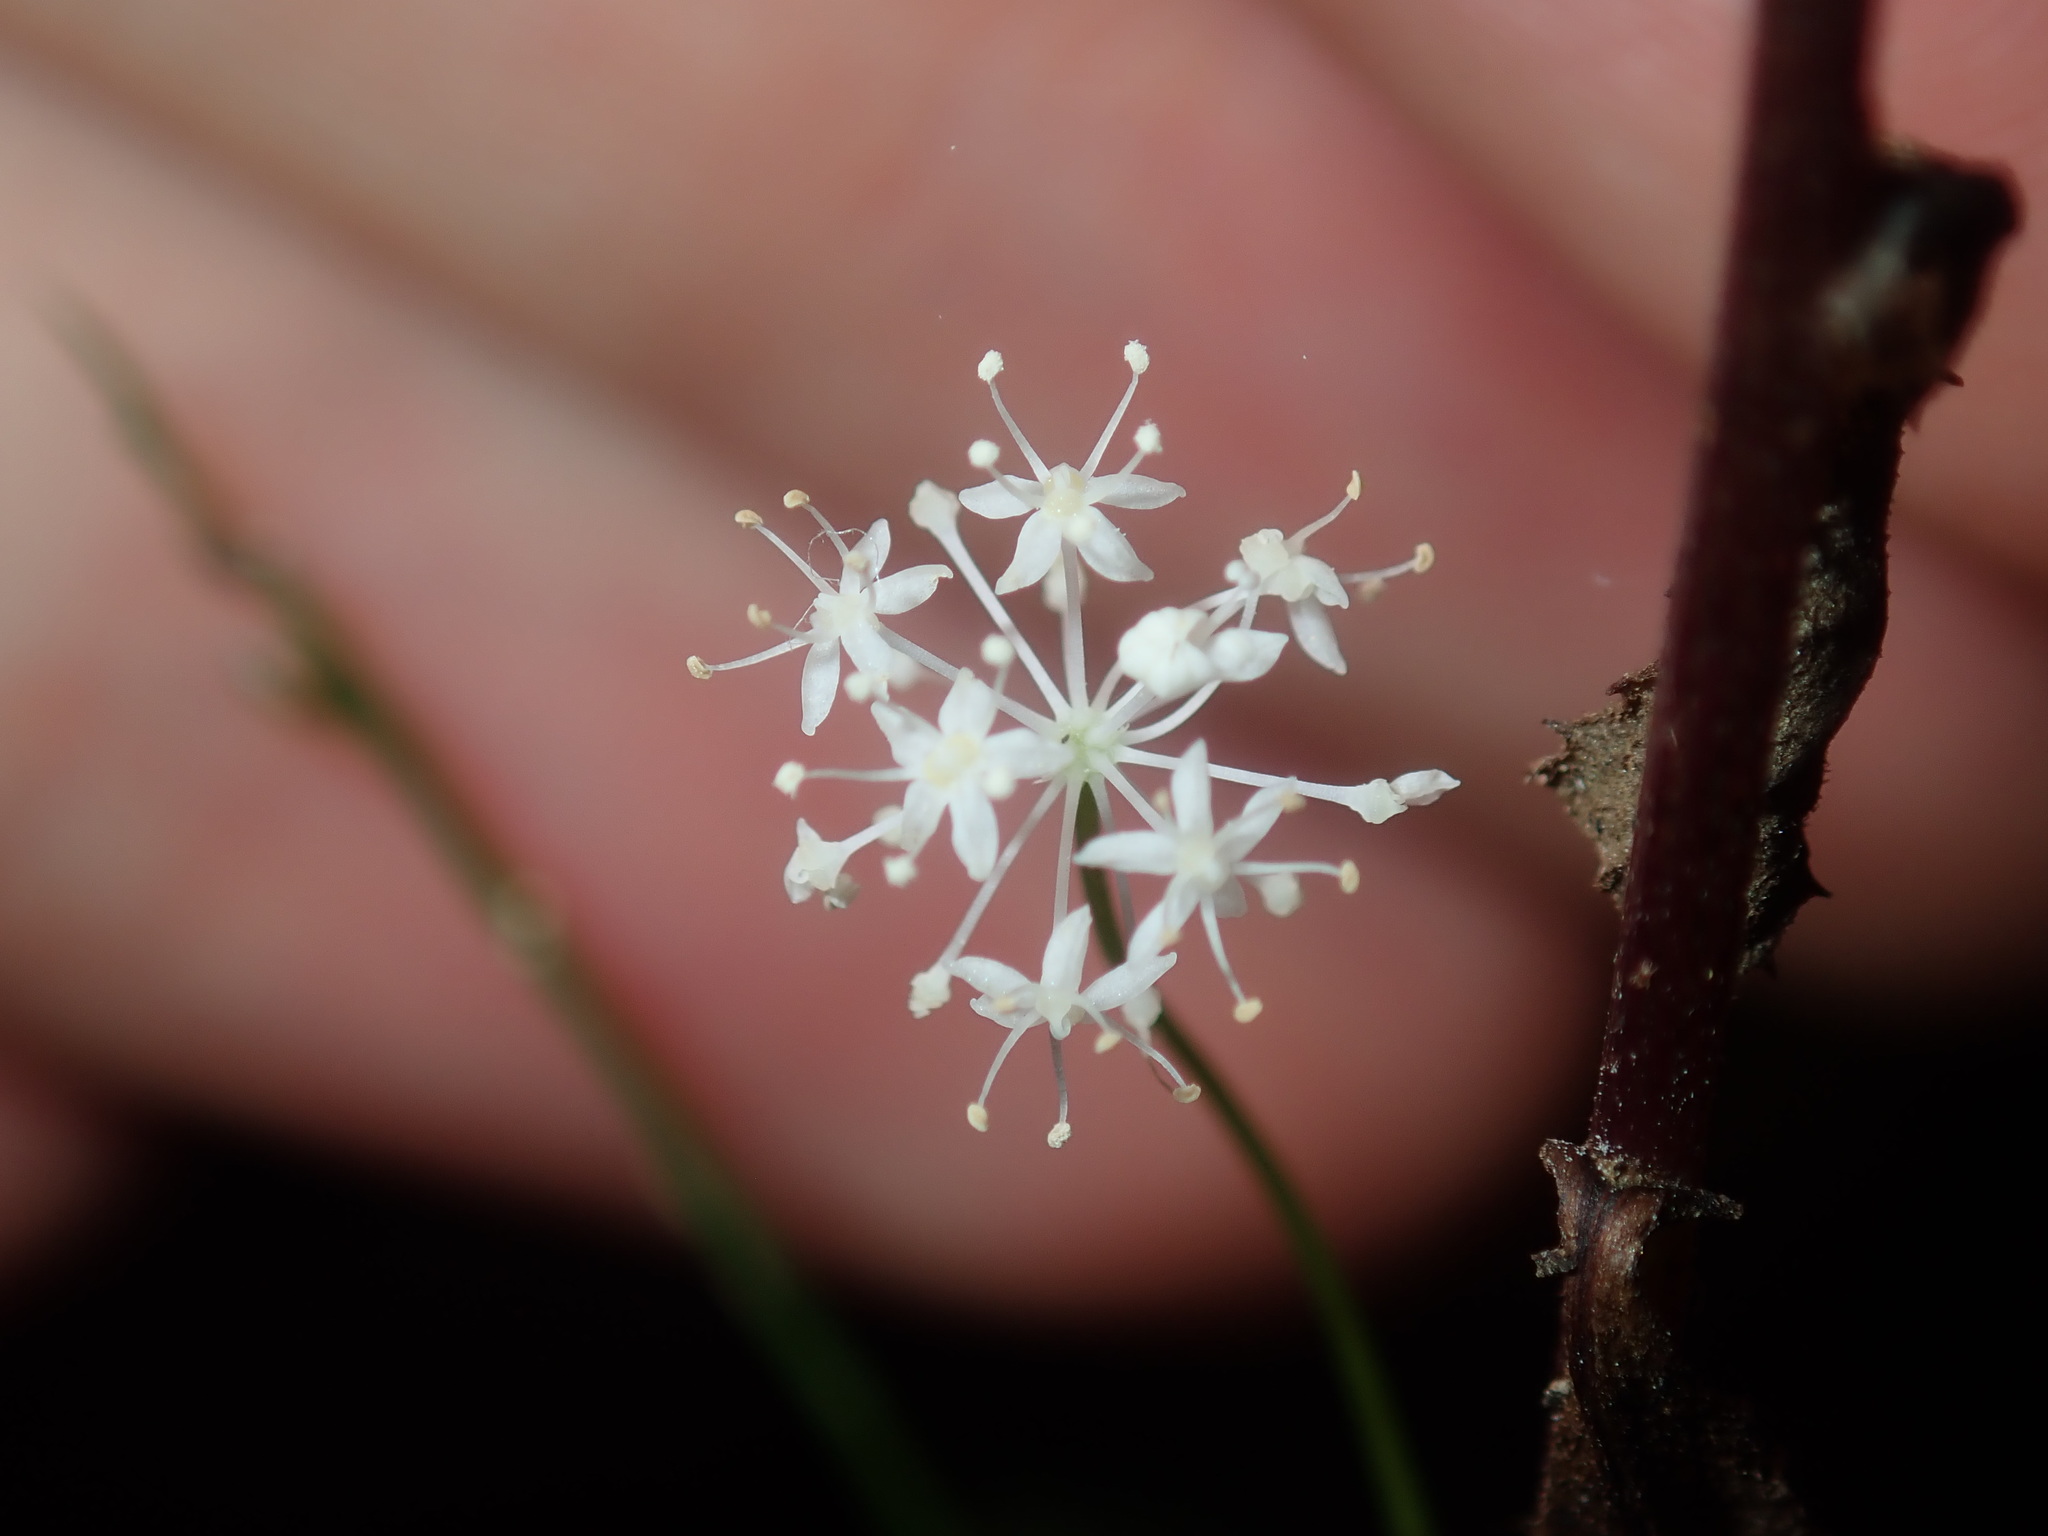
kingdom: Plantae
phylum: Tracheophyta
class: Magnoliopsida
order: Apiales
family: Araliaceae
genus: Hydrocotyle
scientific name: Hydrocotyle geraniifolia
